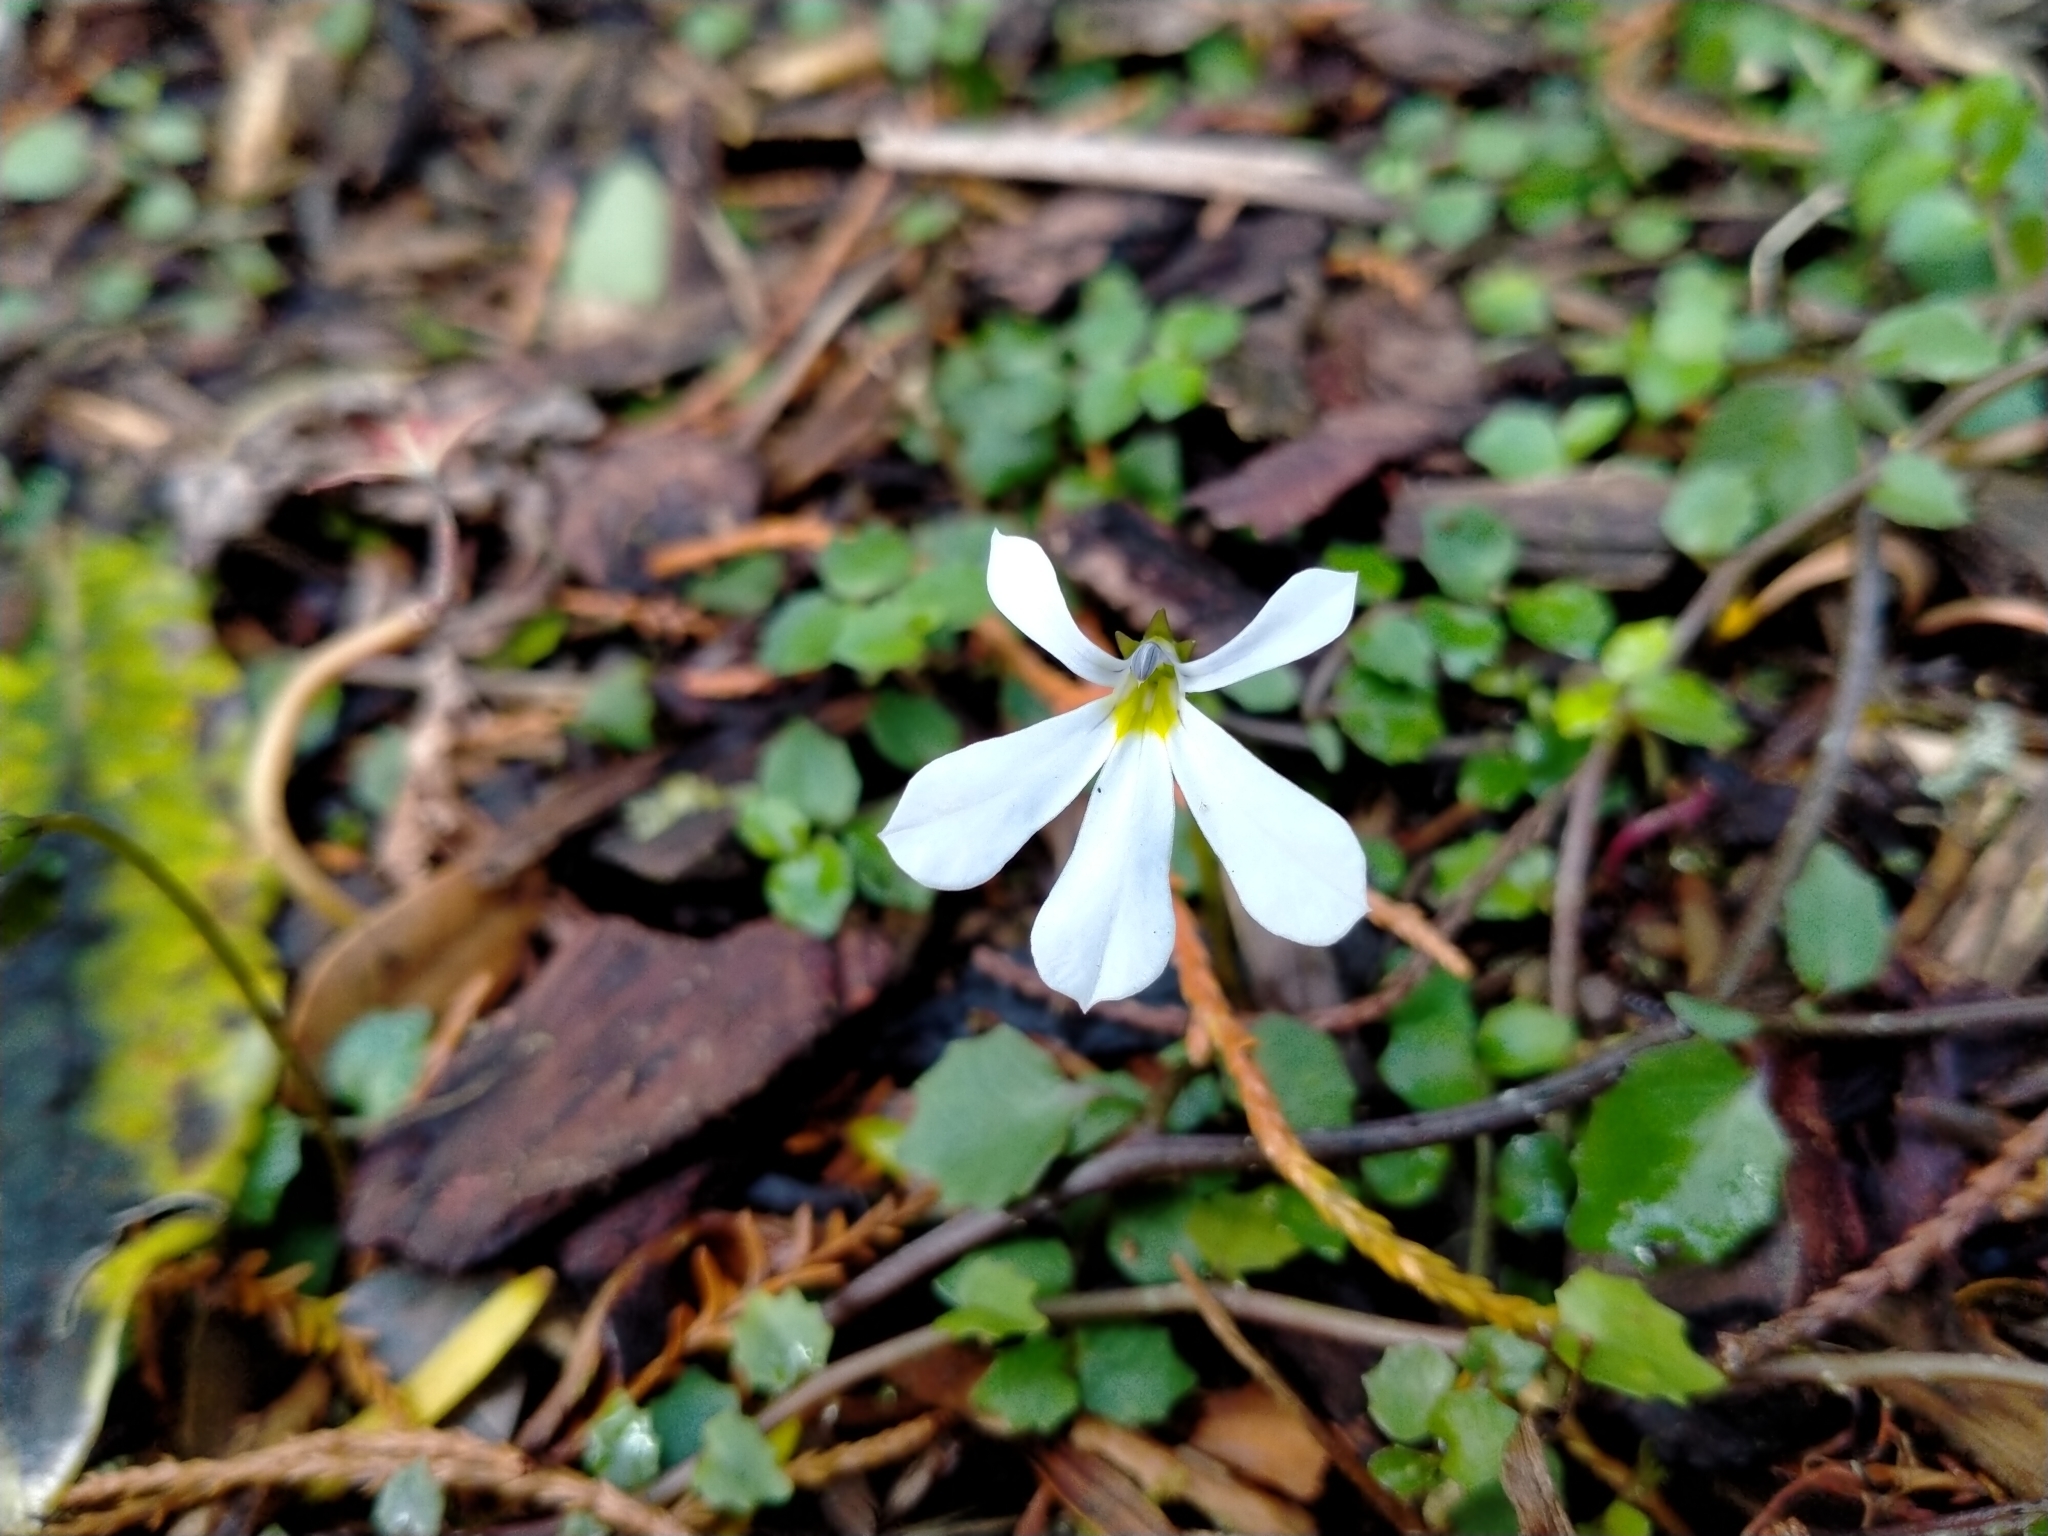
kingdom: Plantae
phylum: Tracheophyta
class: Magnoliopsida
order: Asterales
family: Campanulaceae
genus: Lobelia
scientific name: Lobelia angulata
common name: Lawn lobelia
